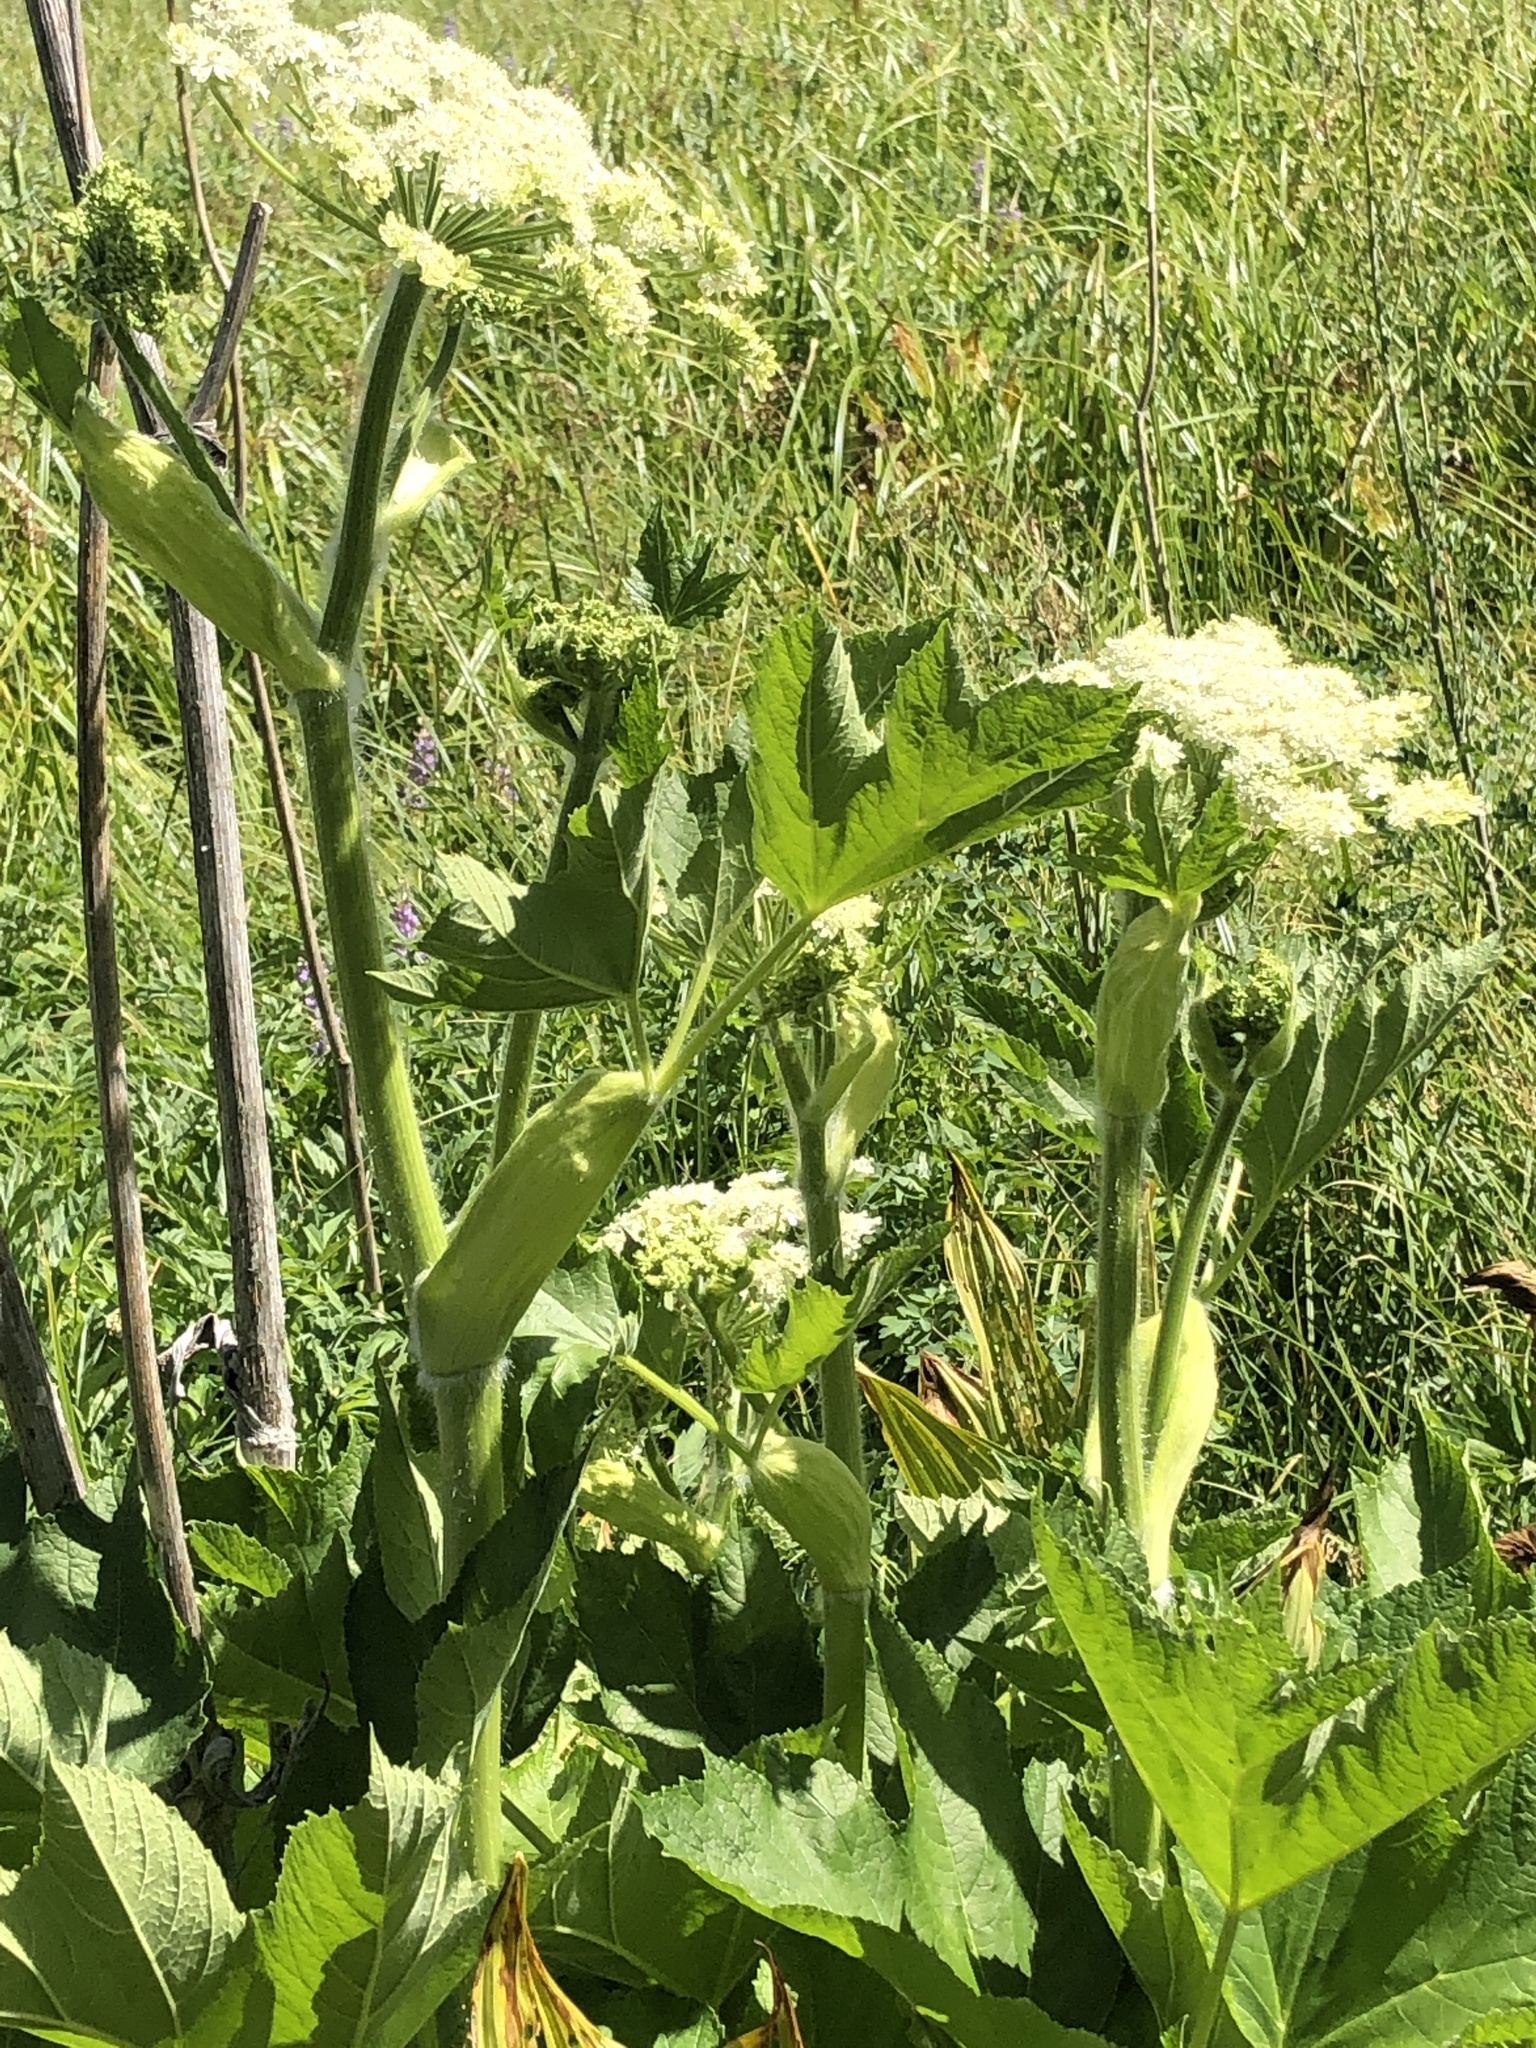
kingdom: Plantae
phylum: Tracheophyta
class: Magnoliopsida
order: Apiales
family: Apiaceae
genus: Heracleum
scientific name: Heracleum maximum
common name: American cow parsnip
